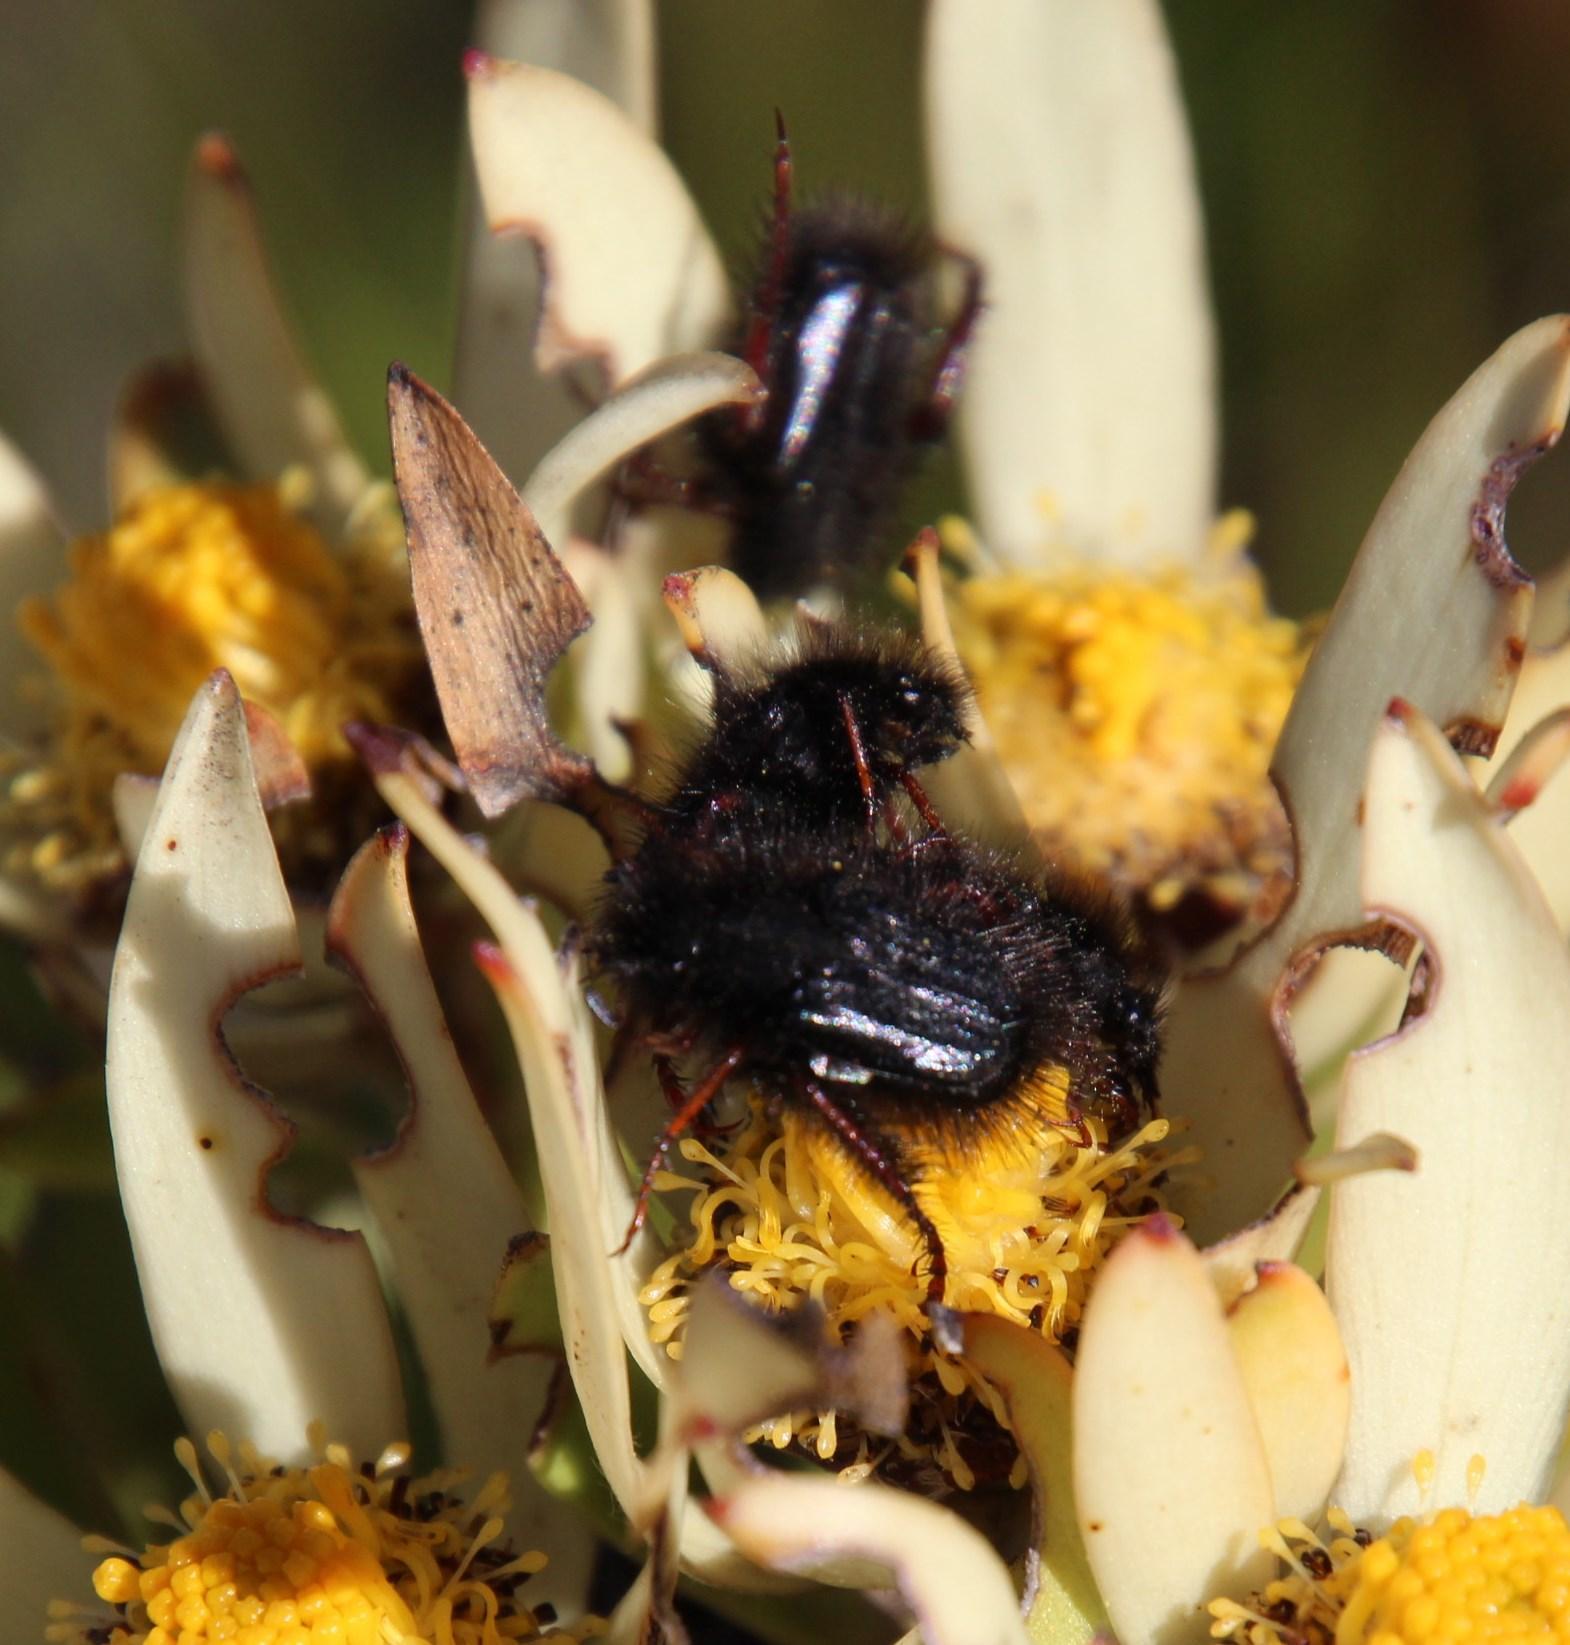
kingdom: Plantae
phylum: Tracheophyta
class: Magnoliopsida
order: Proteales
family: Proteaceae
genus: Leucadendron
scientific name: Leucadendron spissifolium
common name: Spear-leaf conebush
